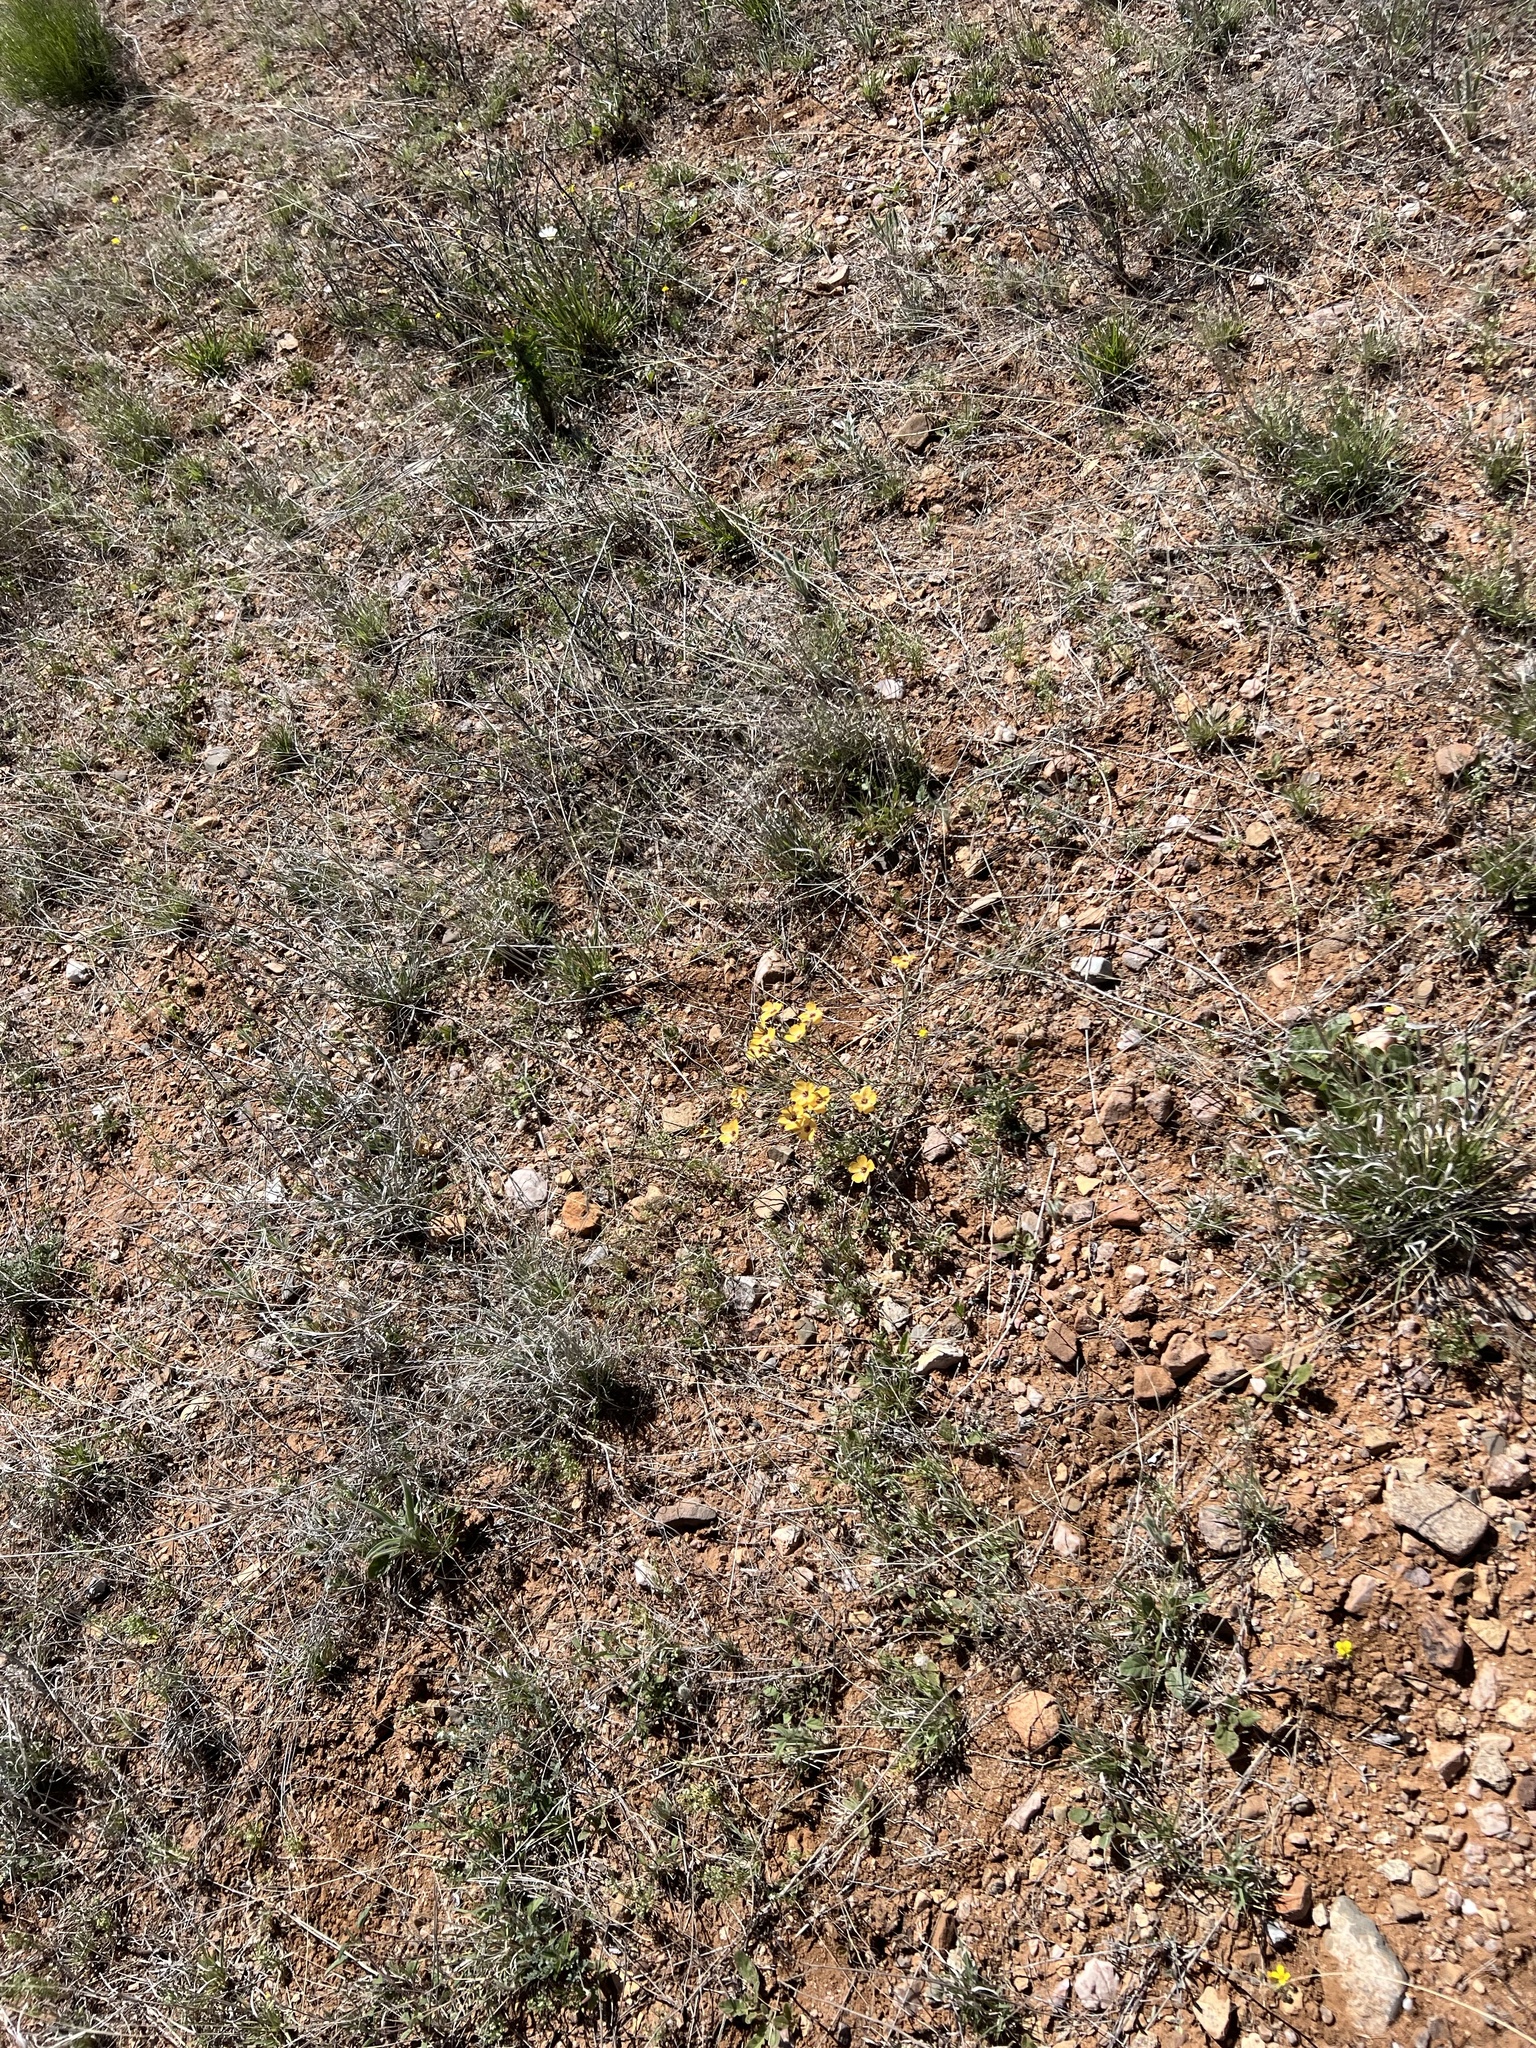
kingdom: Plantae
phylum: Tracheophyta
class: Magnoliopsida
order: Malpighiales
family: Linaceae
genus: Linum
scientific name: Linum puberulum
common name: Plains flax
